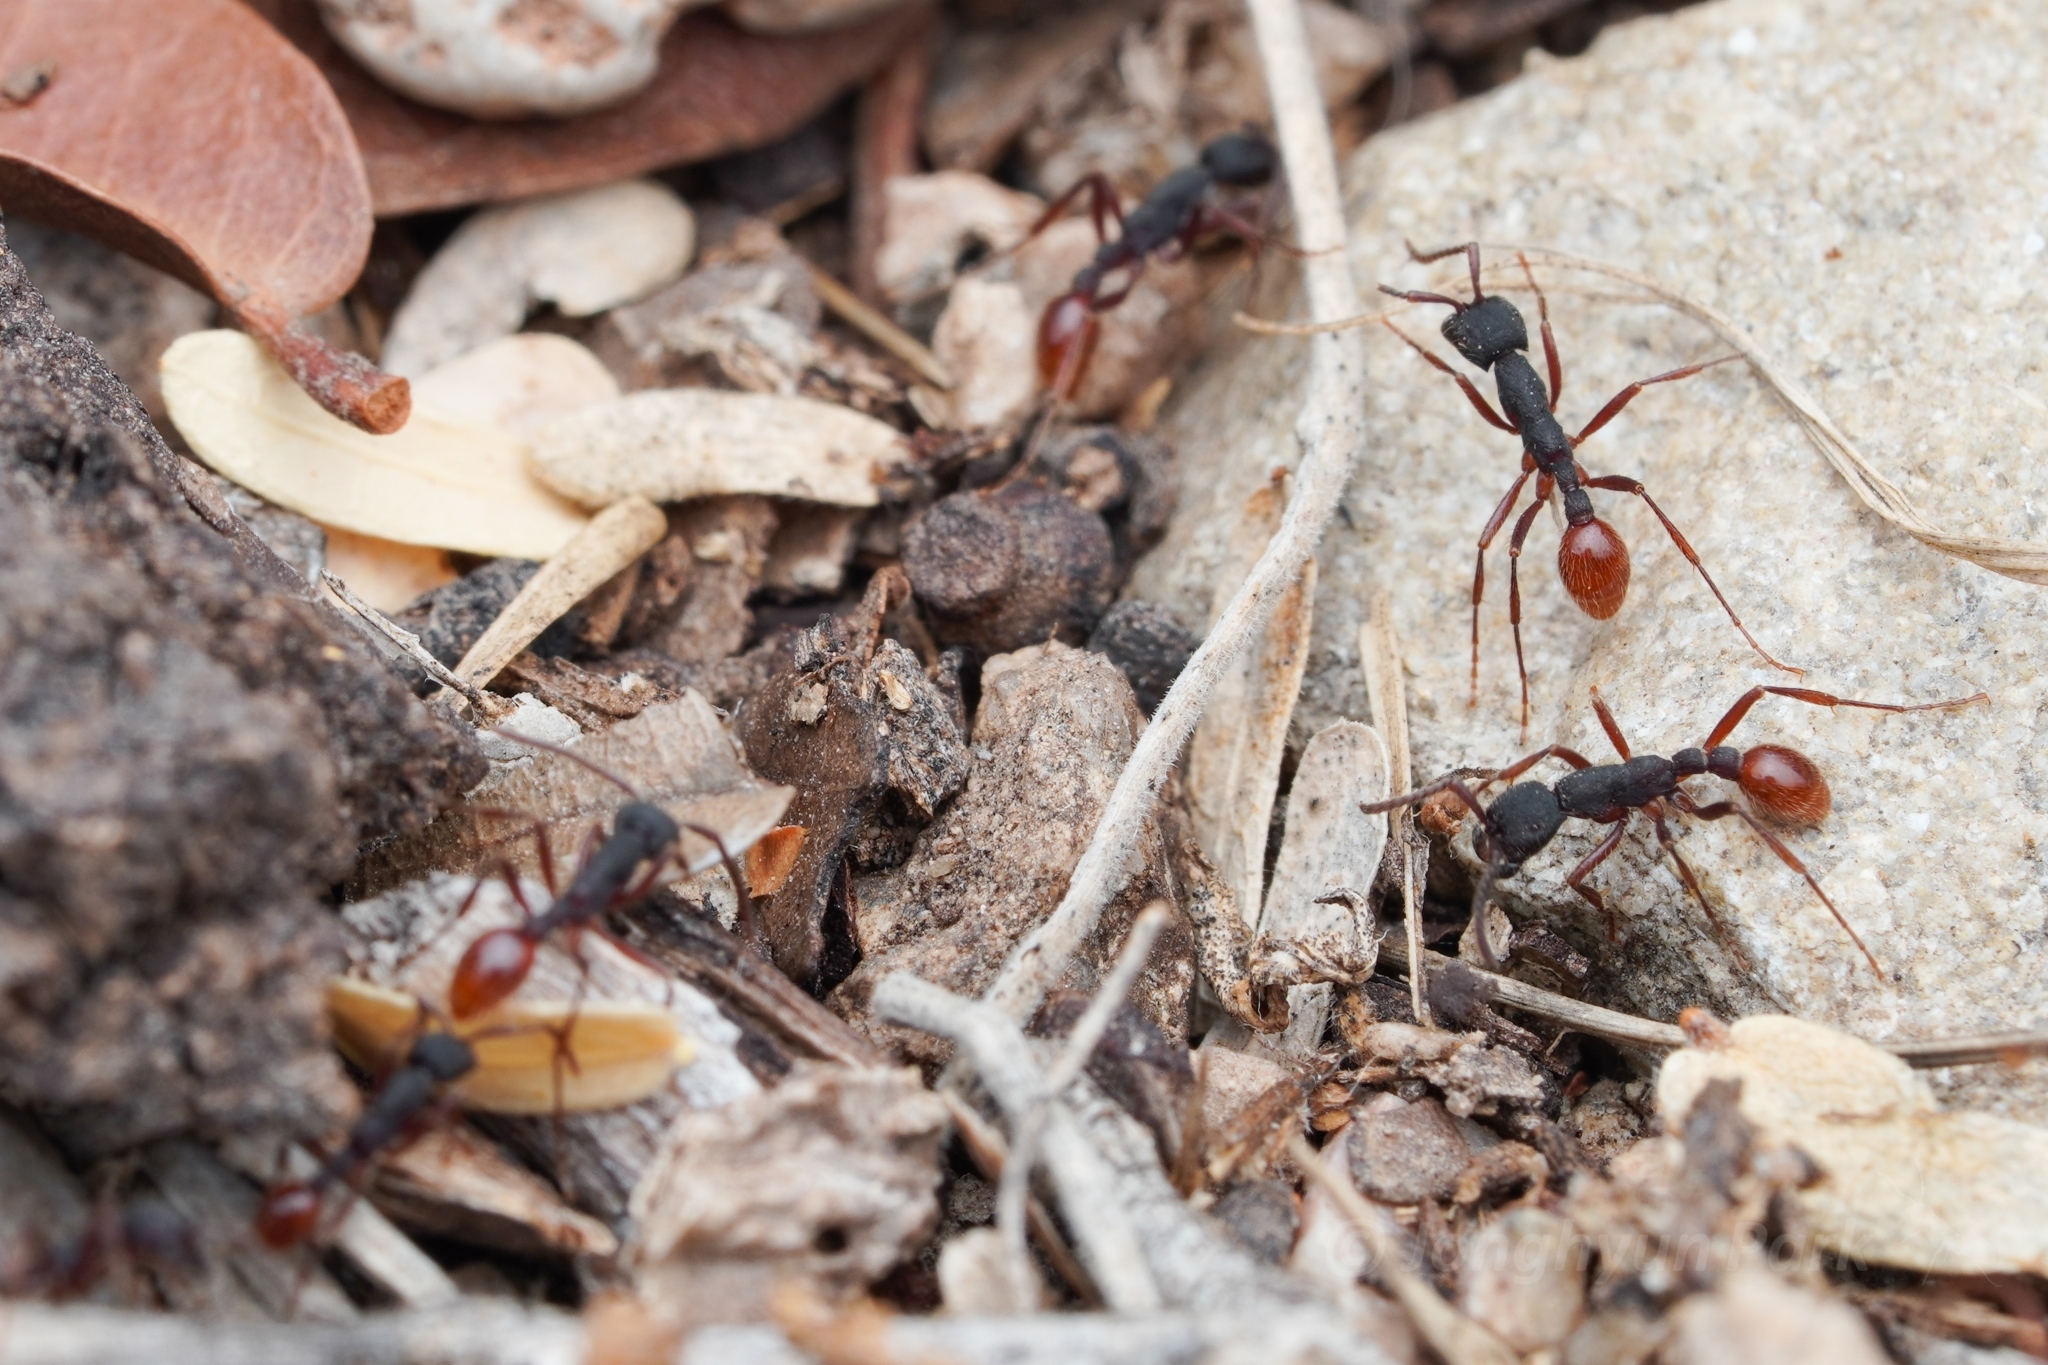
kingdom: Animalia
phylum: Arthropoda
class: Insecta
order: Hymenoptera
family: Formicidae
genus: Neivamyrmex
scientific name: Neivamyrmex texanus
